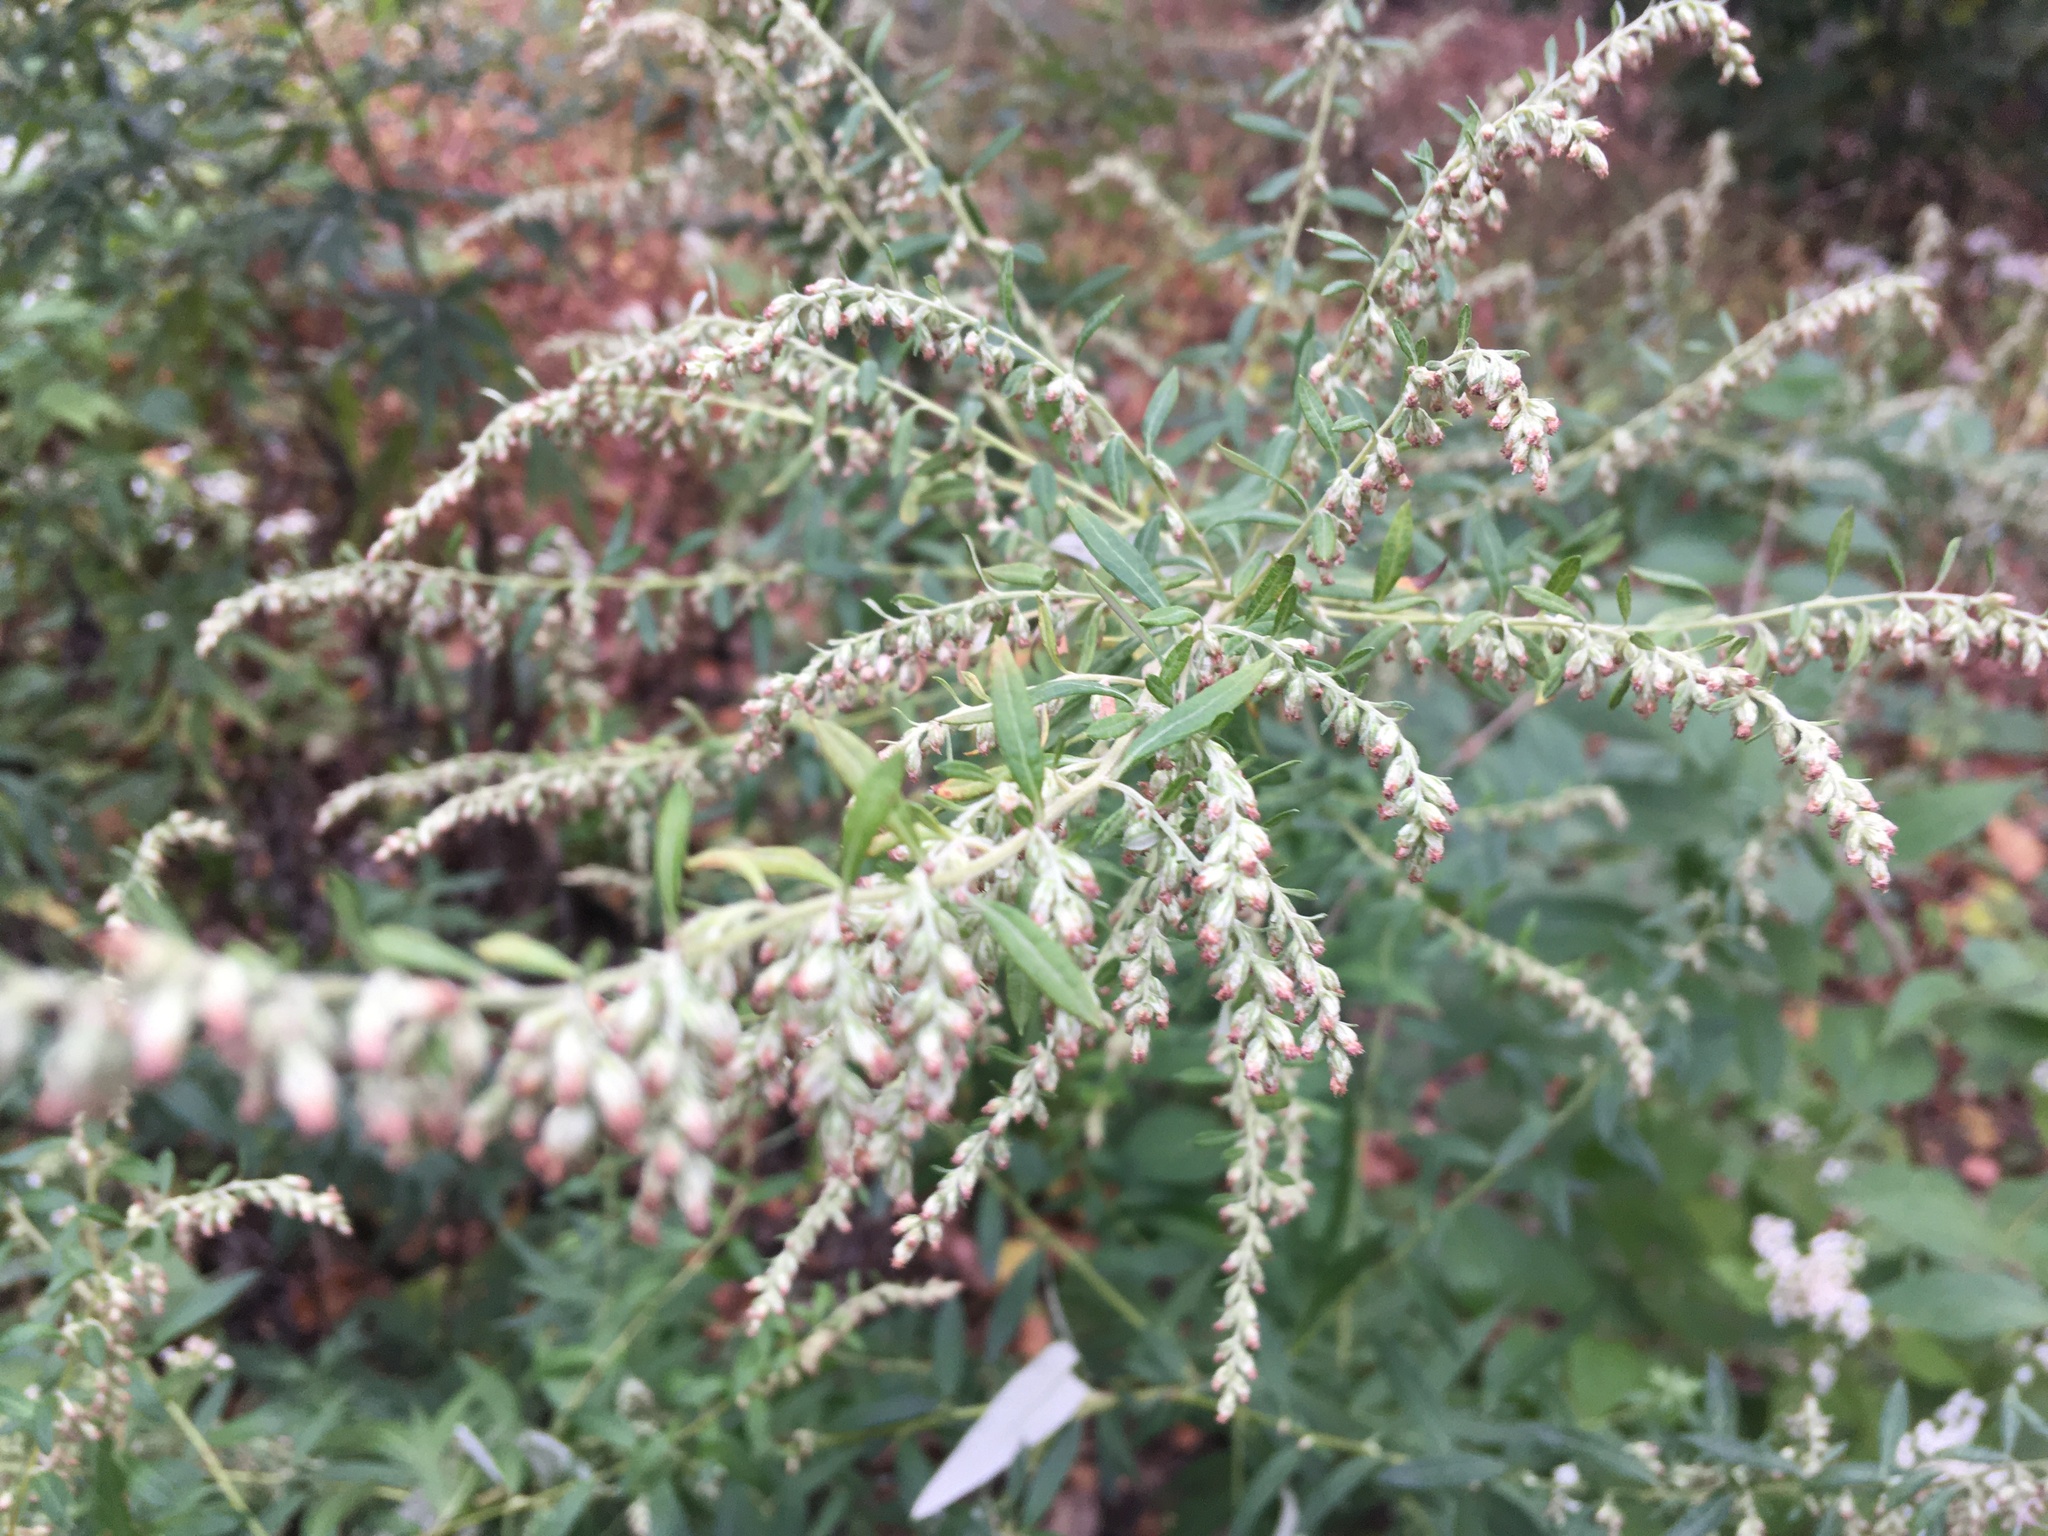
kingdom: Plantae
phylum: Tracheophyta
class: Magnoliopsida
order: Asterales
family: Asteraceae
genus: Artemisia
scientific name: Artemisia vulgaris
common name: Mugwort
